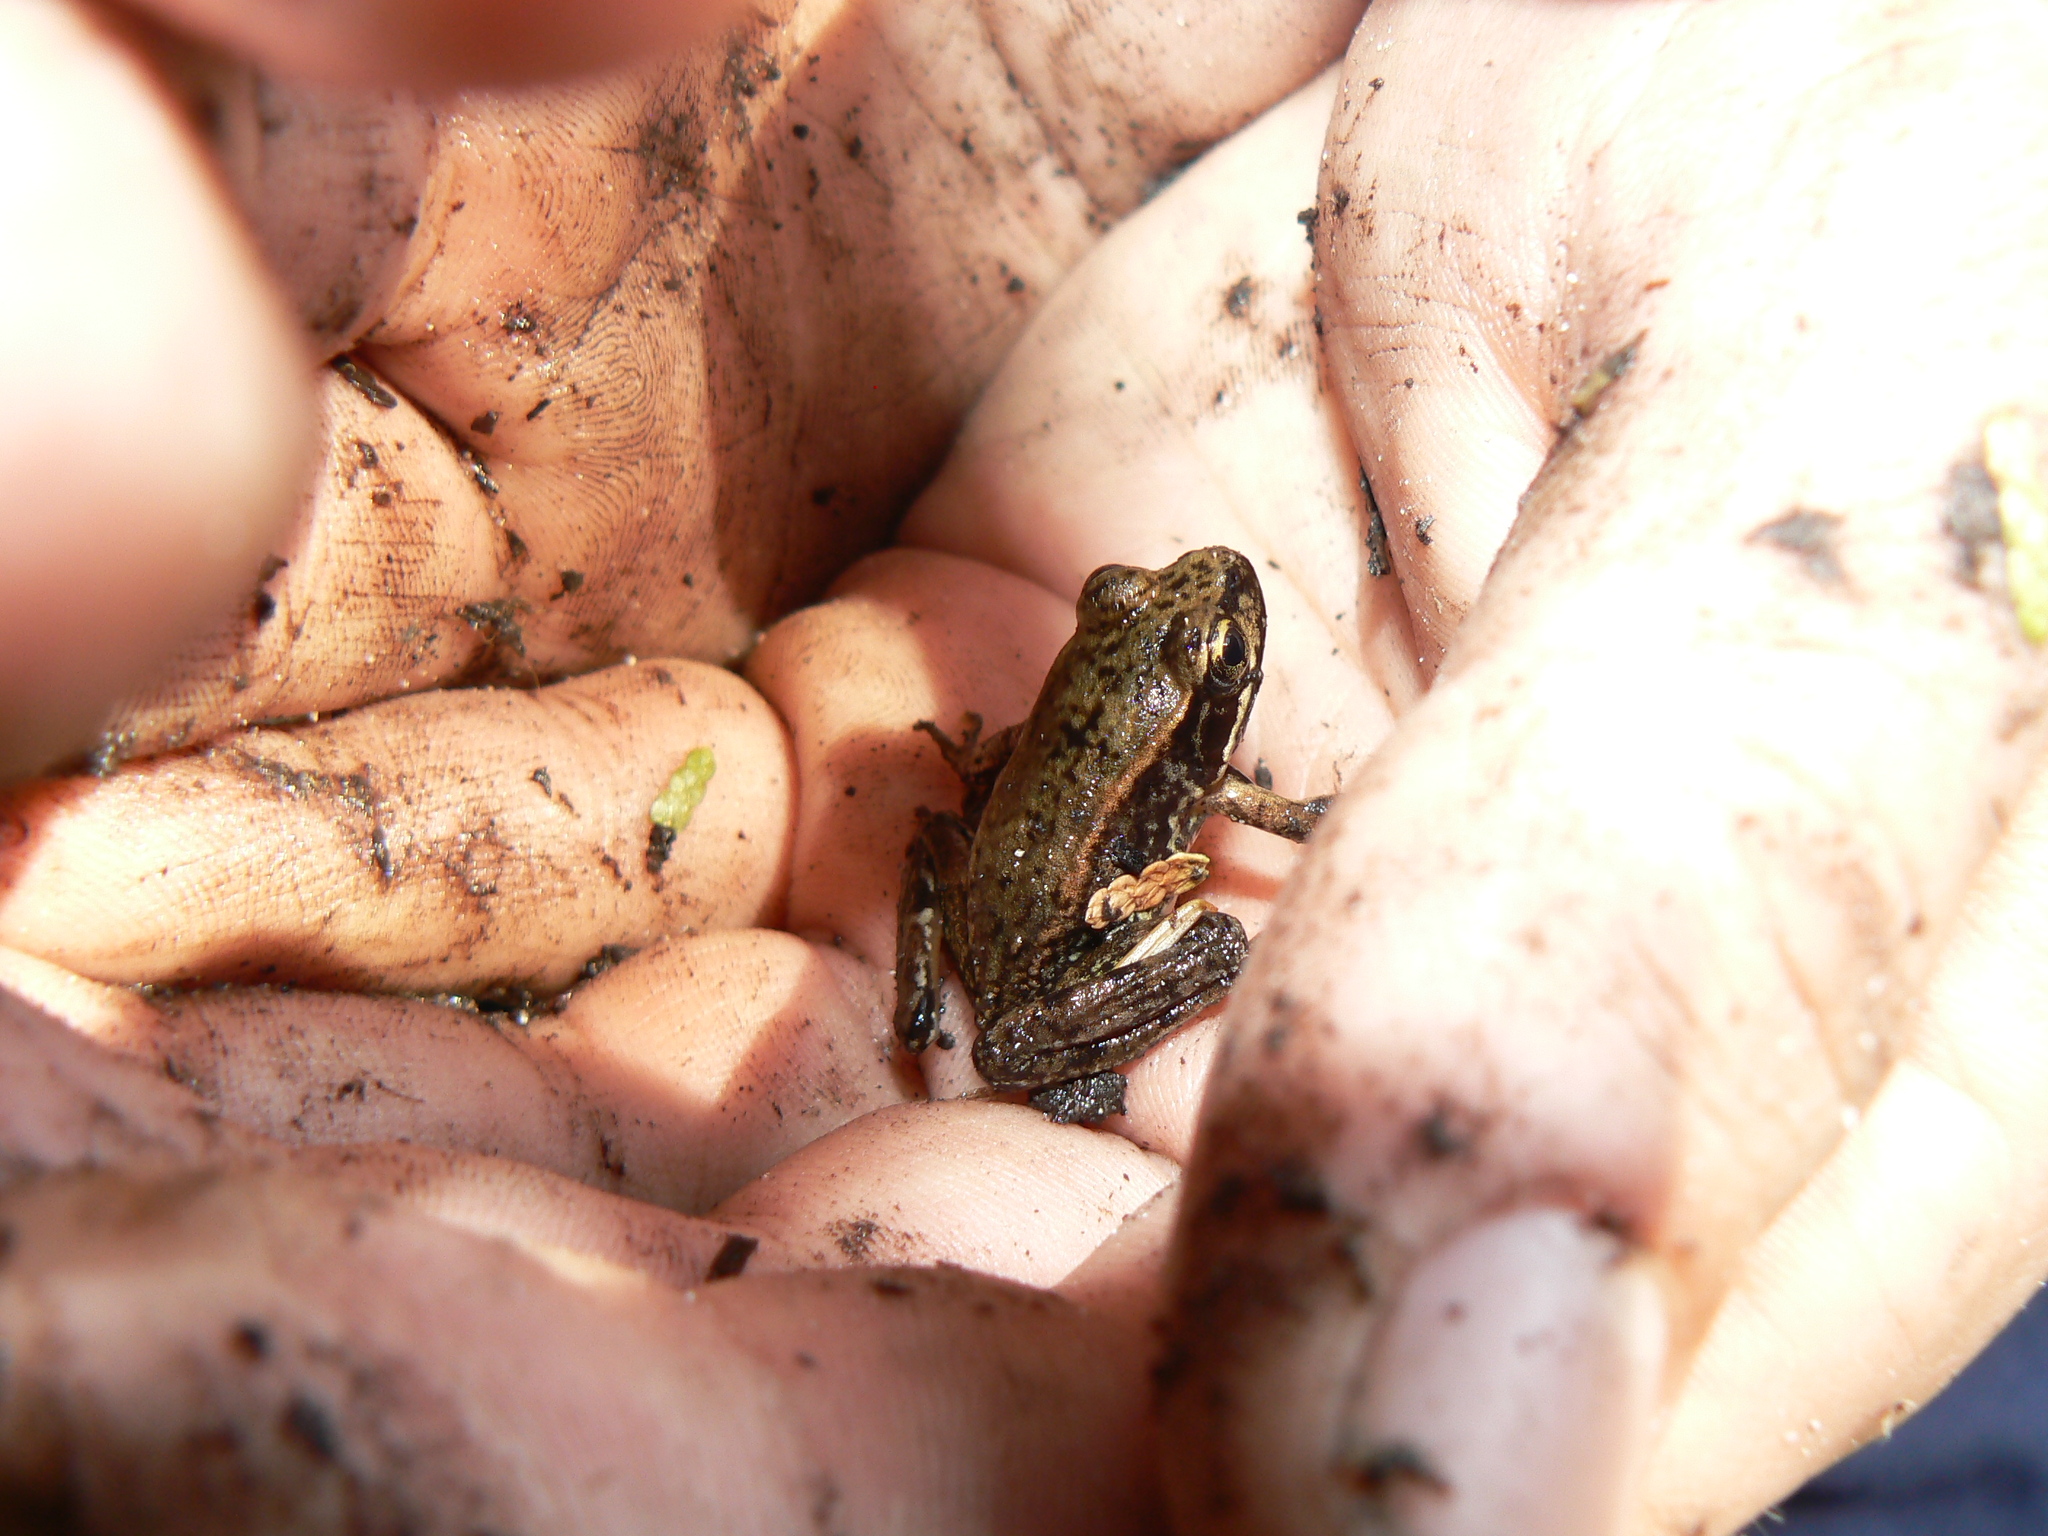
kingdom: Animalia
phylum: Chordata
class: Amphibia
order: Anura
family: Ranidae
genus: Rana
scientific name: Rana aurora
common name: Red-legged frog
